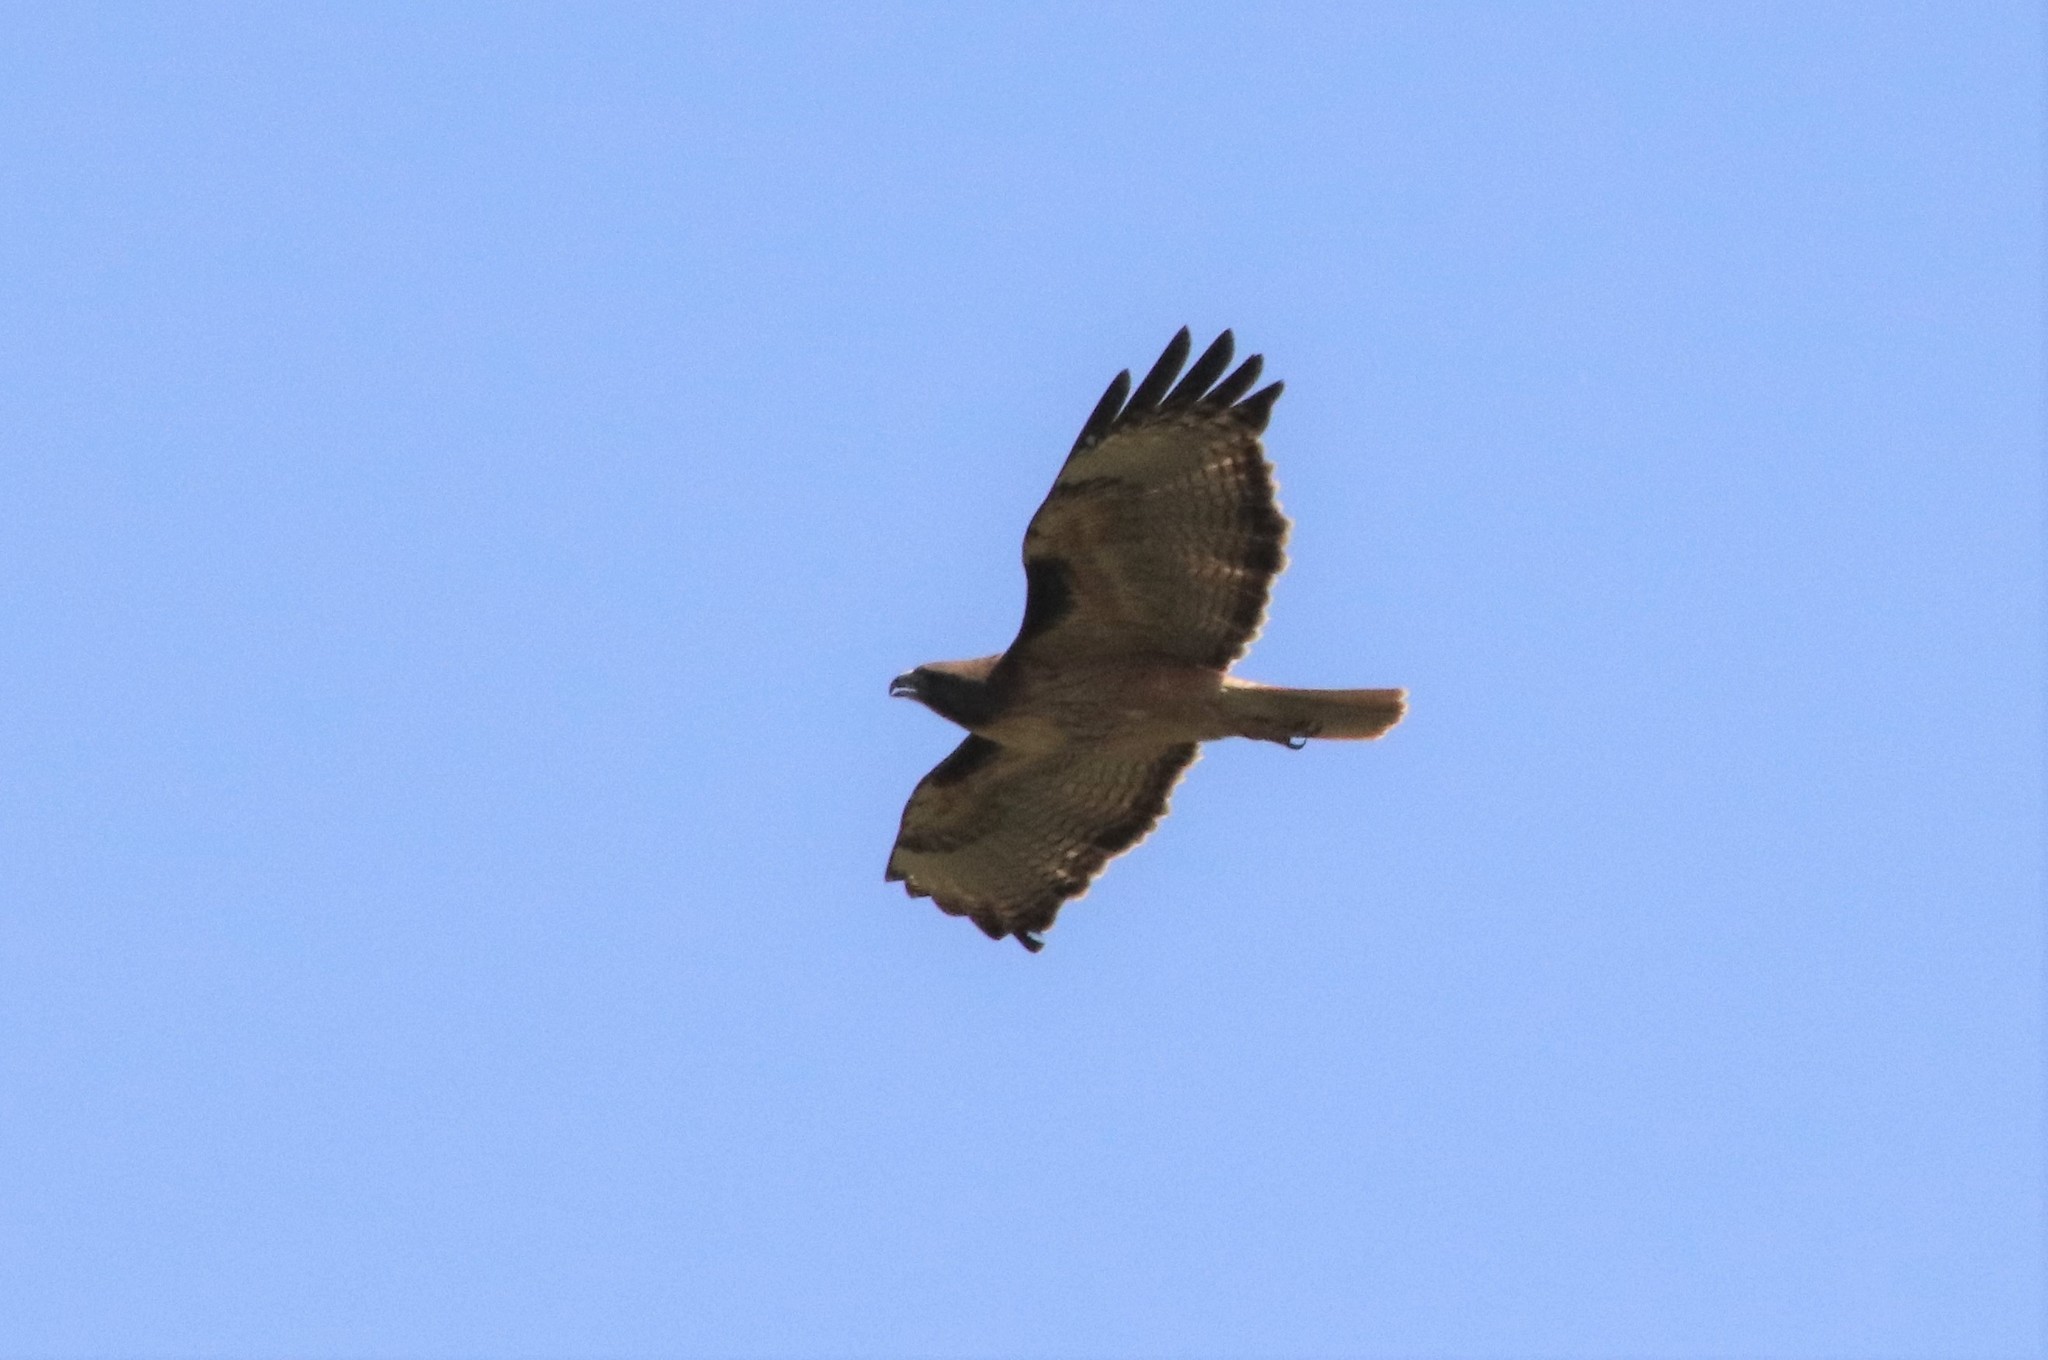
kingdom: Animalia
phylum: Chordata
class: Aves
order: Accipitriformes
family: Accipitridae
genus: Buteo
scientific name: Buteo jamaicensis
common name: Red-tailed hawk
